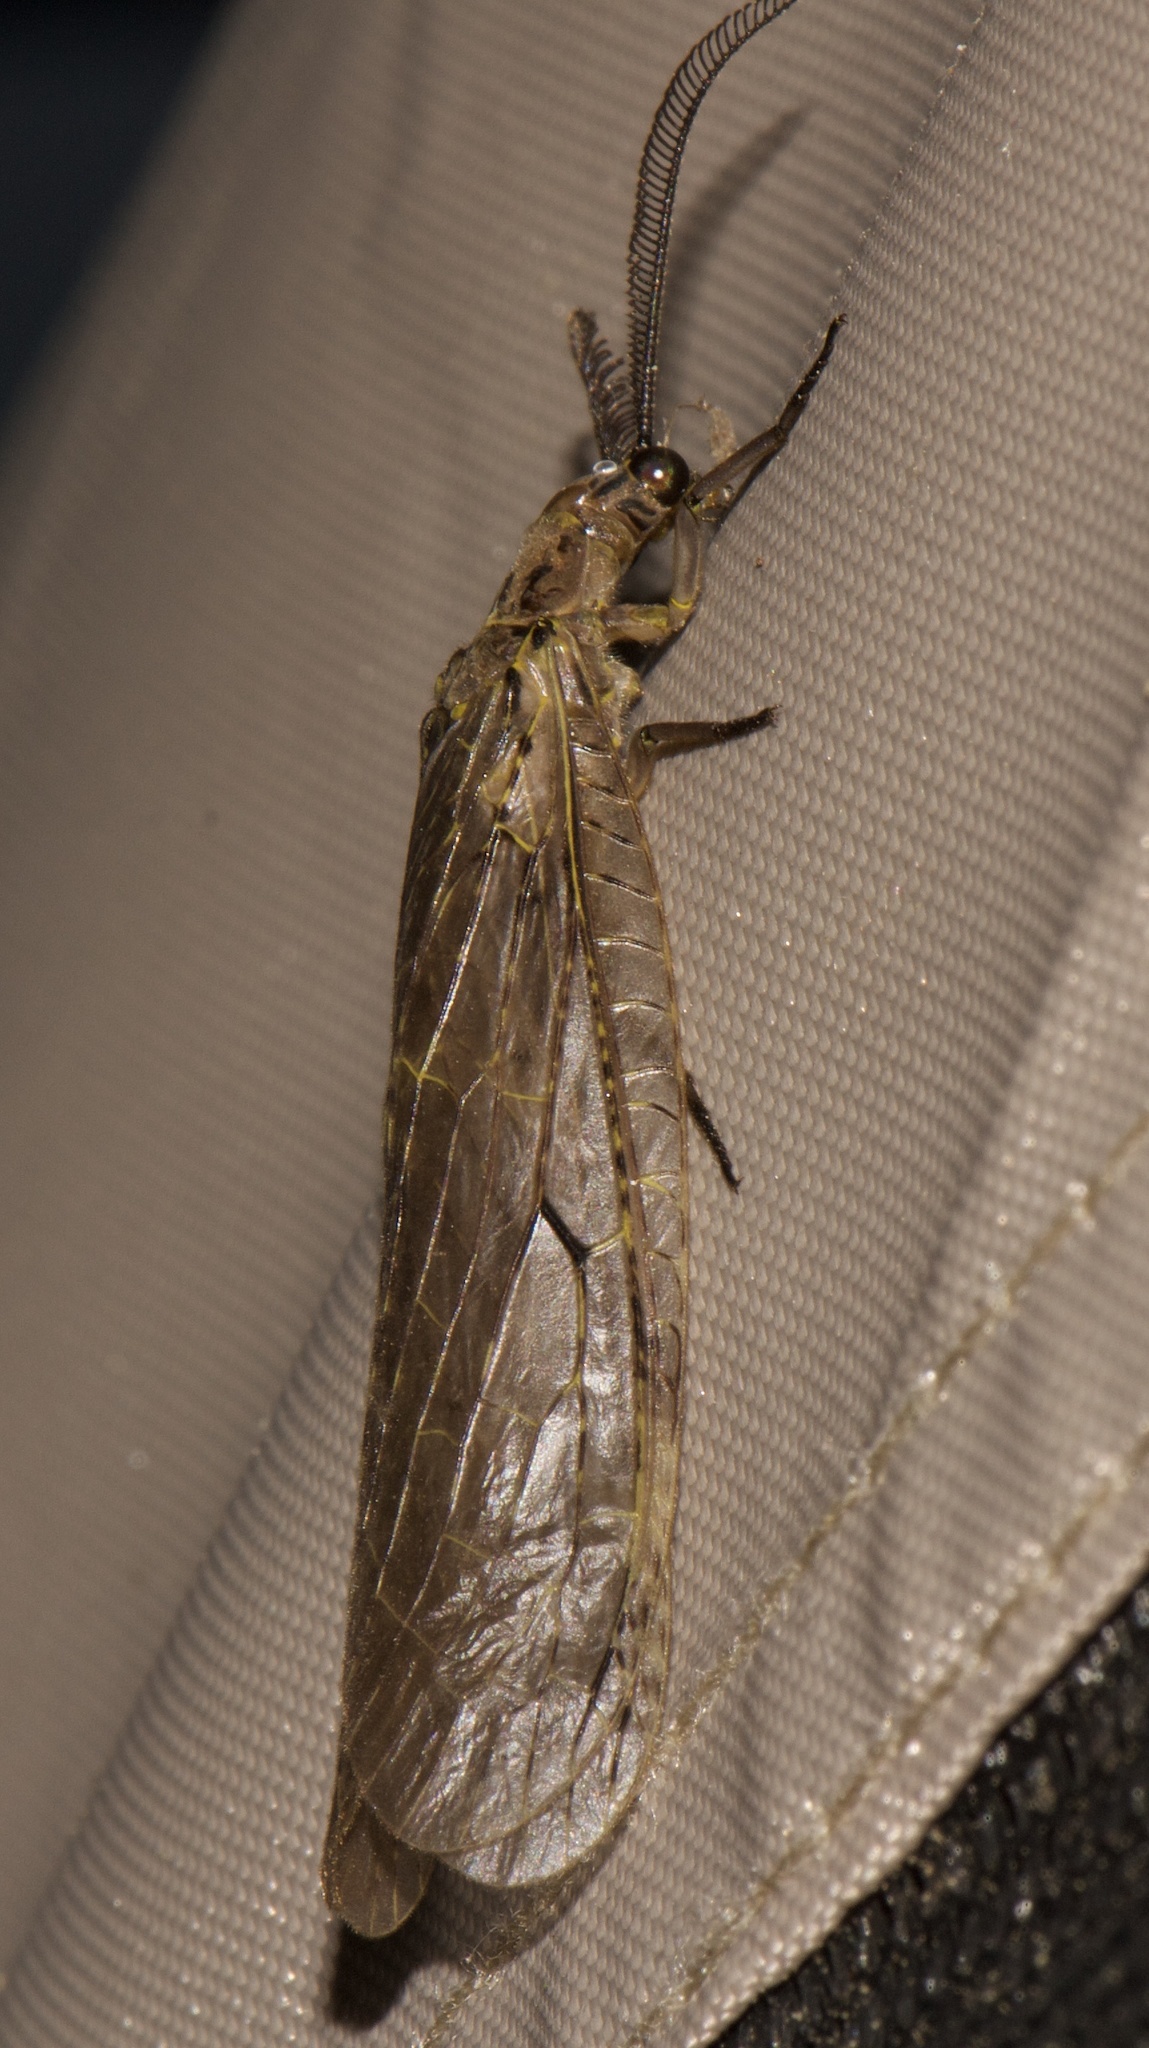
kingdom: Animalia
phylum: Arthropoda
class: Insecta
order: Megaloptera
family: Corydalidae
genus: Chauliodes
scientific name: Chauliodes rastricornis
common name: Spring fishfly
